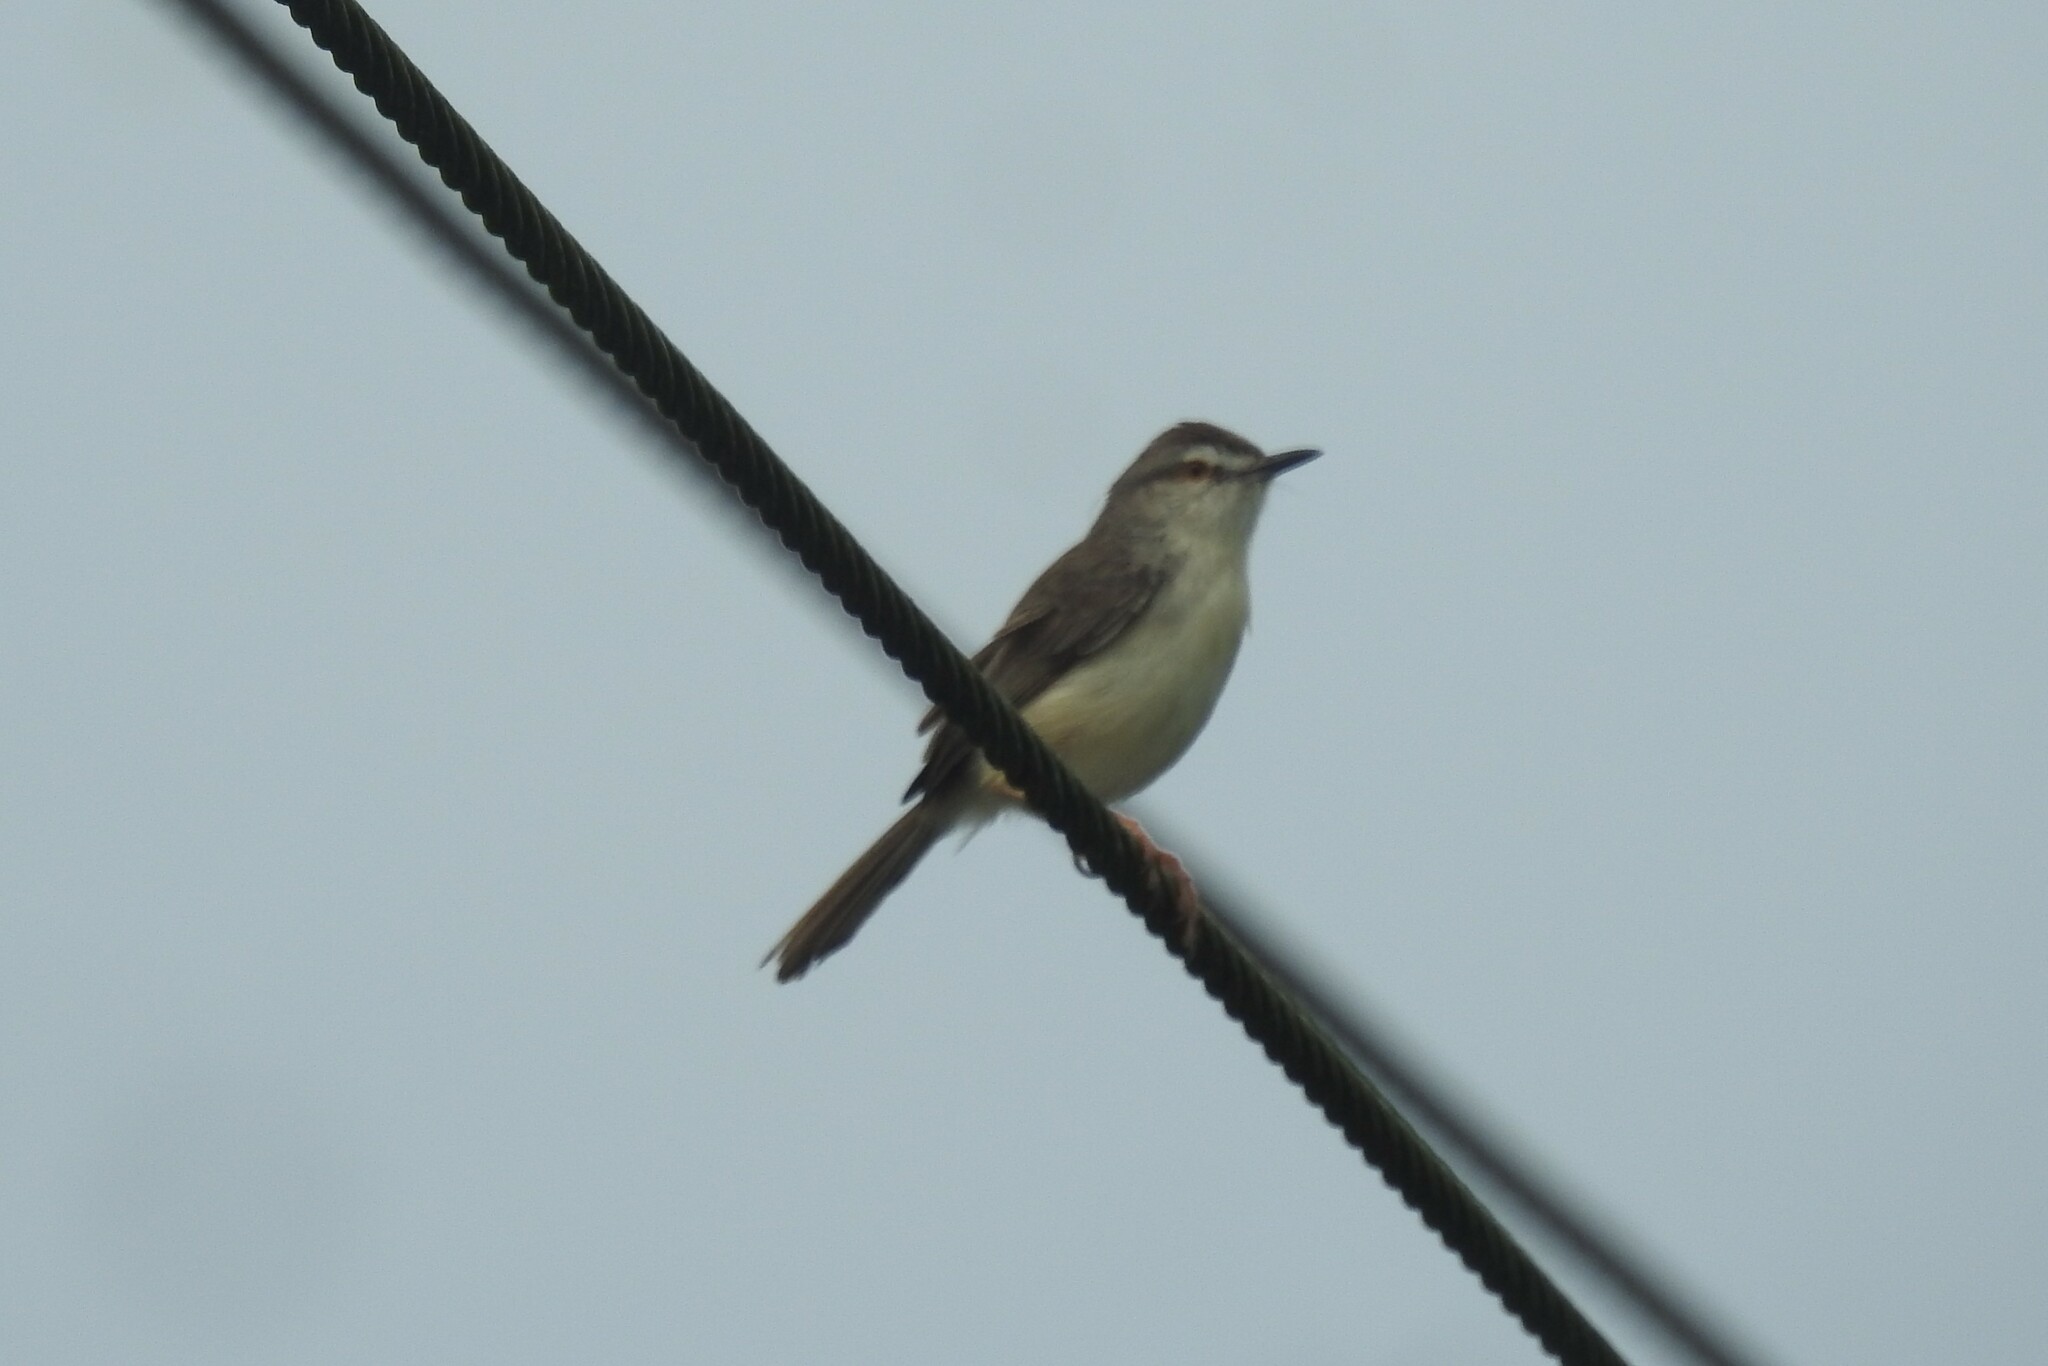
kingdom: Animalia
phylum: Chordata
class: Aves
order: Passeriformes
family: Cisticolidae
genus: Prinia
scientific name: Prinia inornata
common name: Plain prinia
